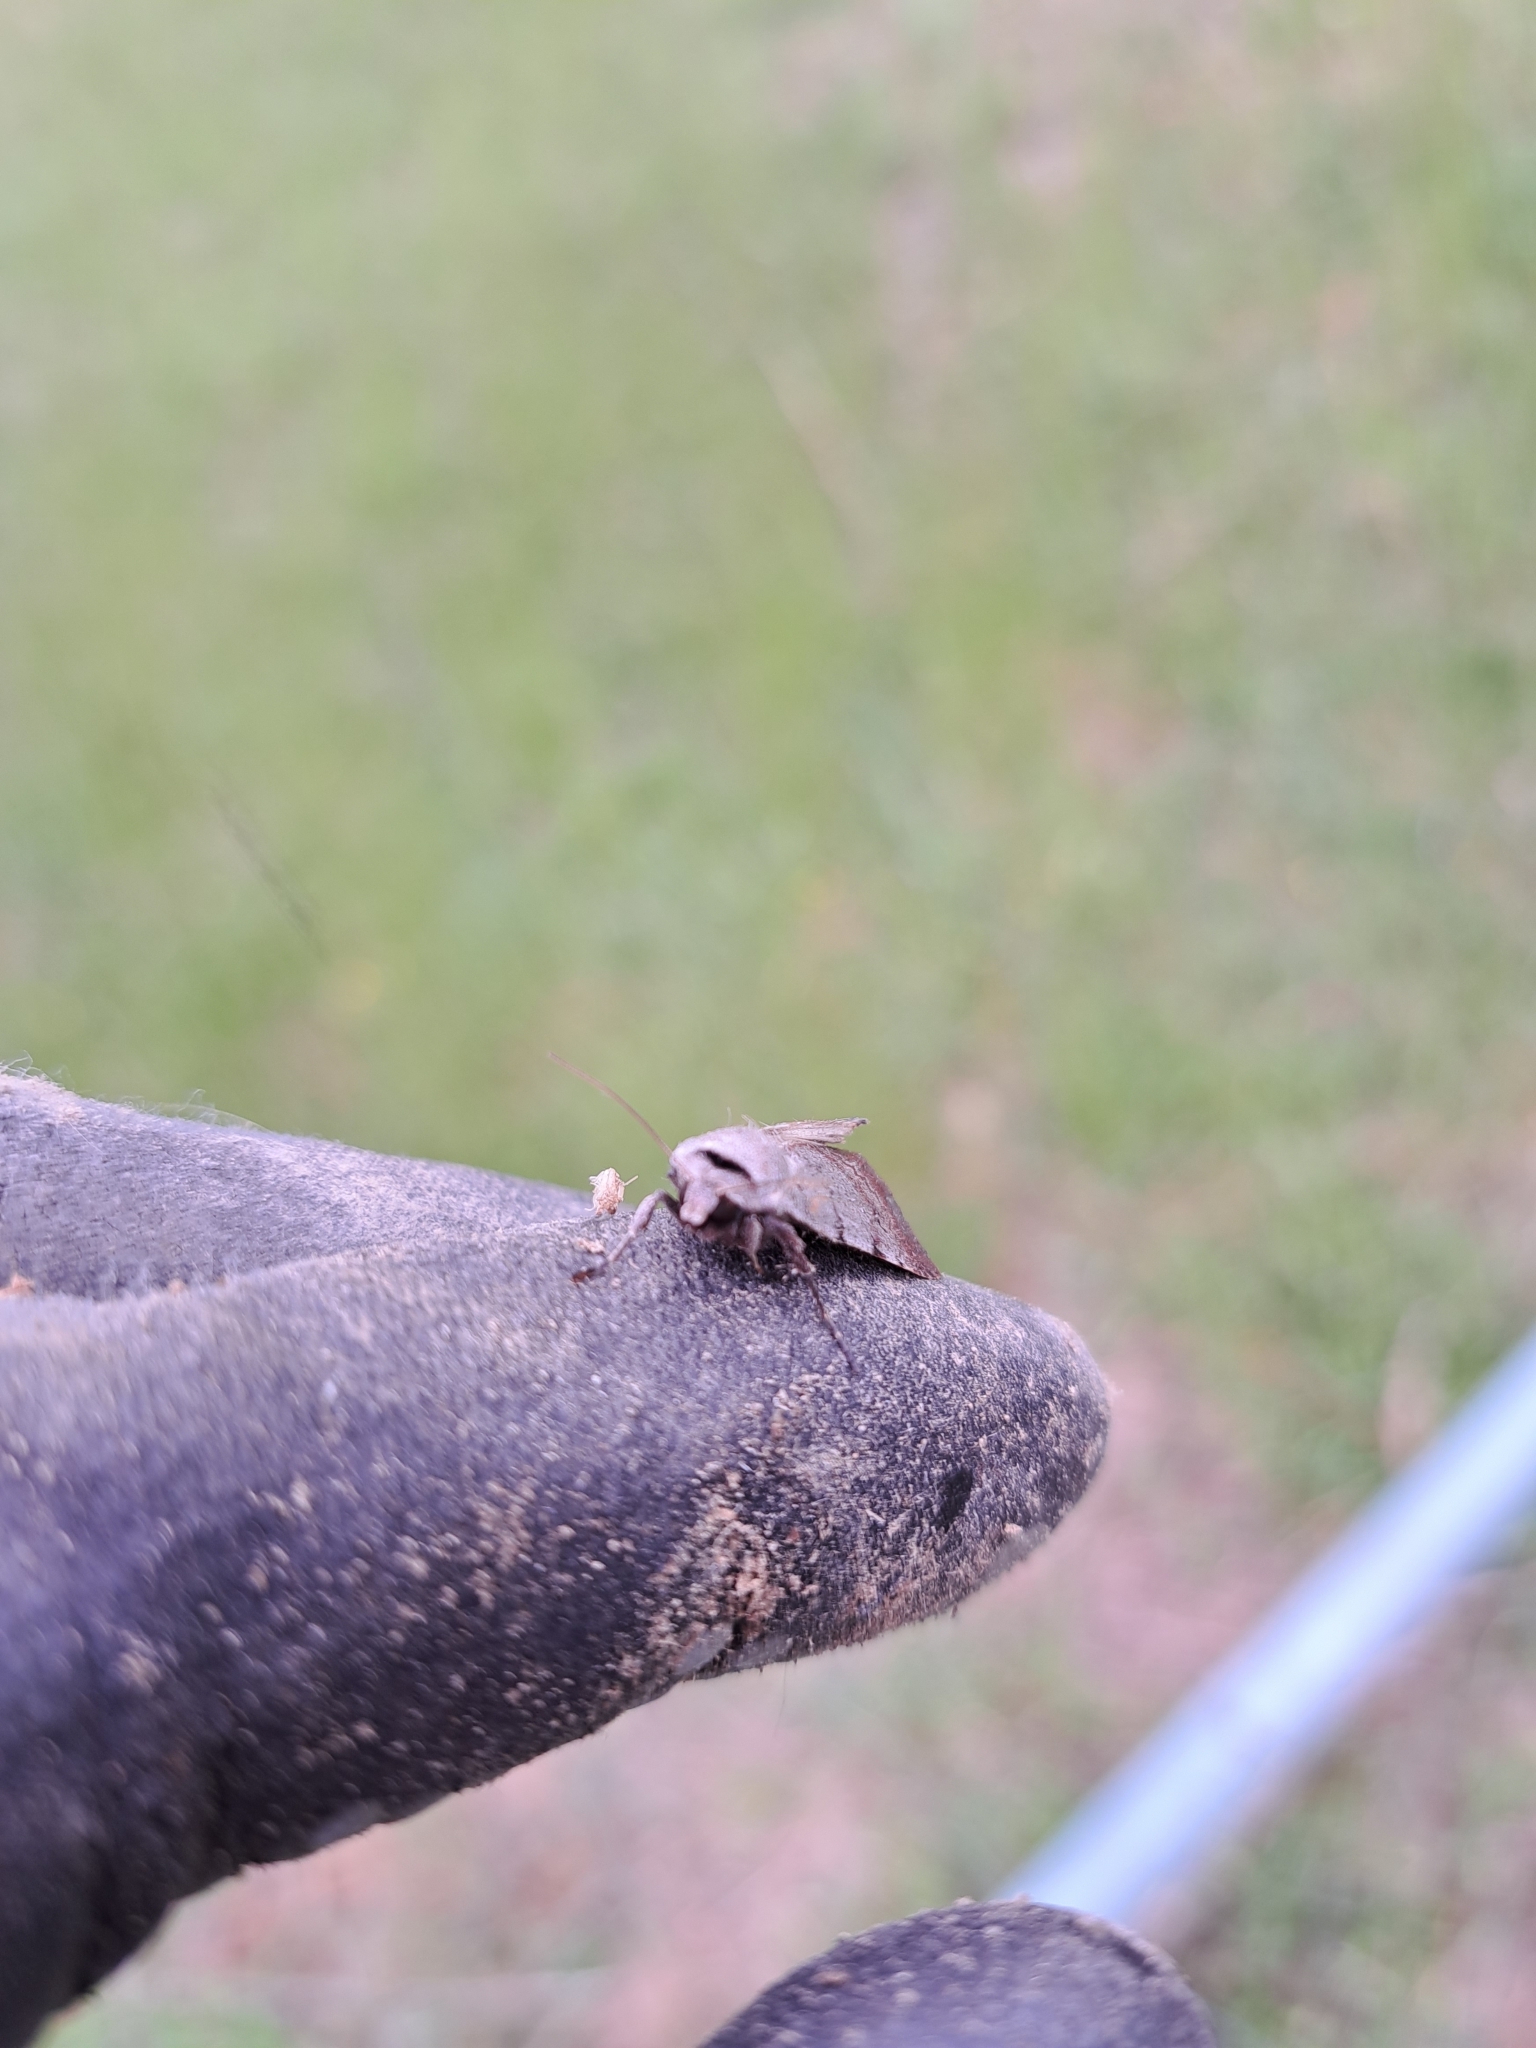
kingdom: Animalia
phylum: Arthropoda
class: Insecta
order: Lepidoptera
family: Noctuidae
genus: Anicla
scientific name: Anicla illapsa
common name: Snowy dart
